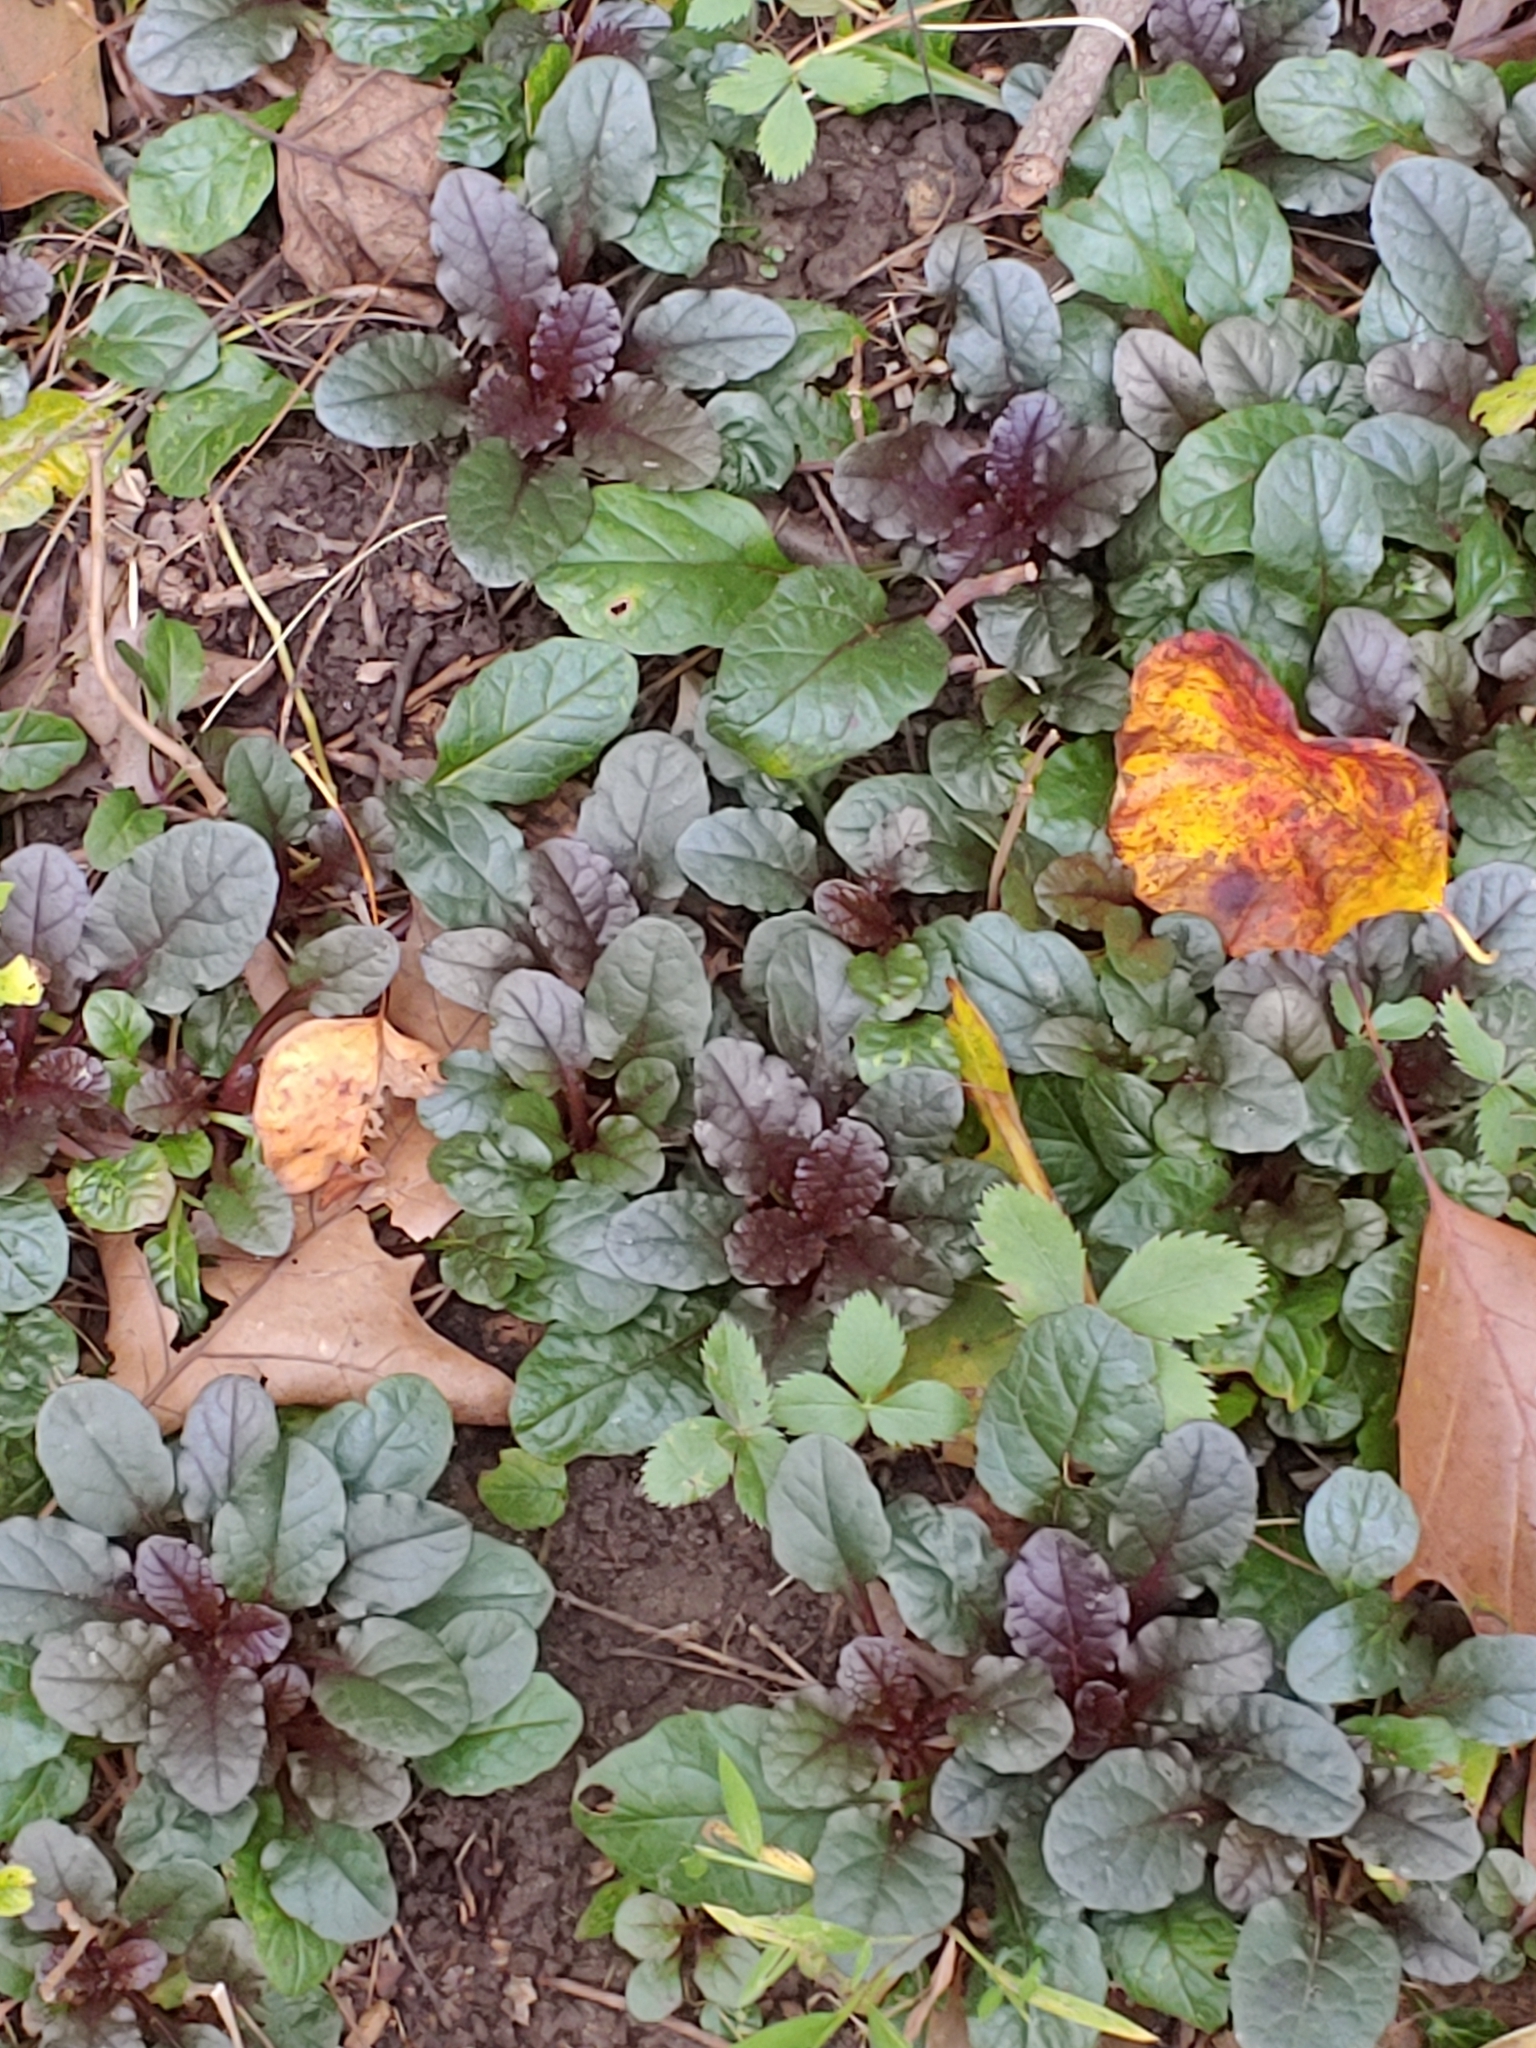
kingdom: Plantae
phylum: Tracheophyta
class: Magnoliopsida
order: Lamiales
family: Lamiaceae
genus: Ajuga
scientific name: Ajuga reptans
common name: Bugle
